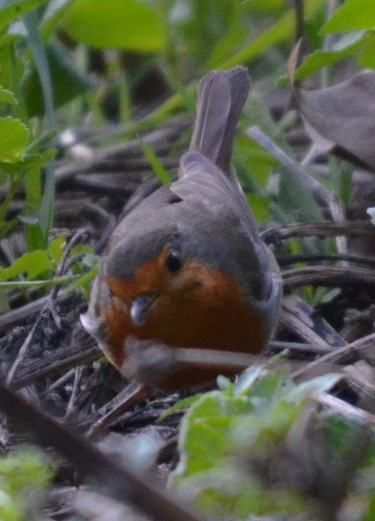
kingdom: Animalia
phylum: Chordata
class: Aves
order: Passeriformes
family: Muscicapidae
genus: Erithacus
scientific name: Erithacus rubecula
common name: European robin
